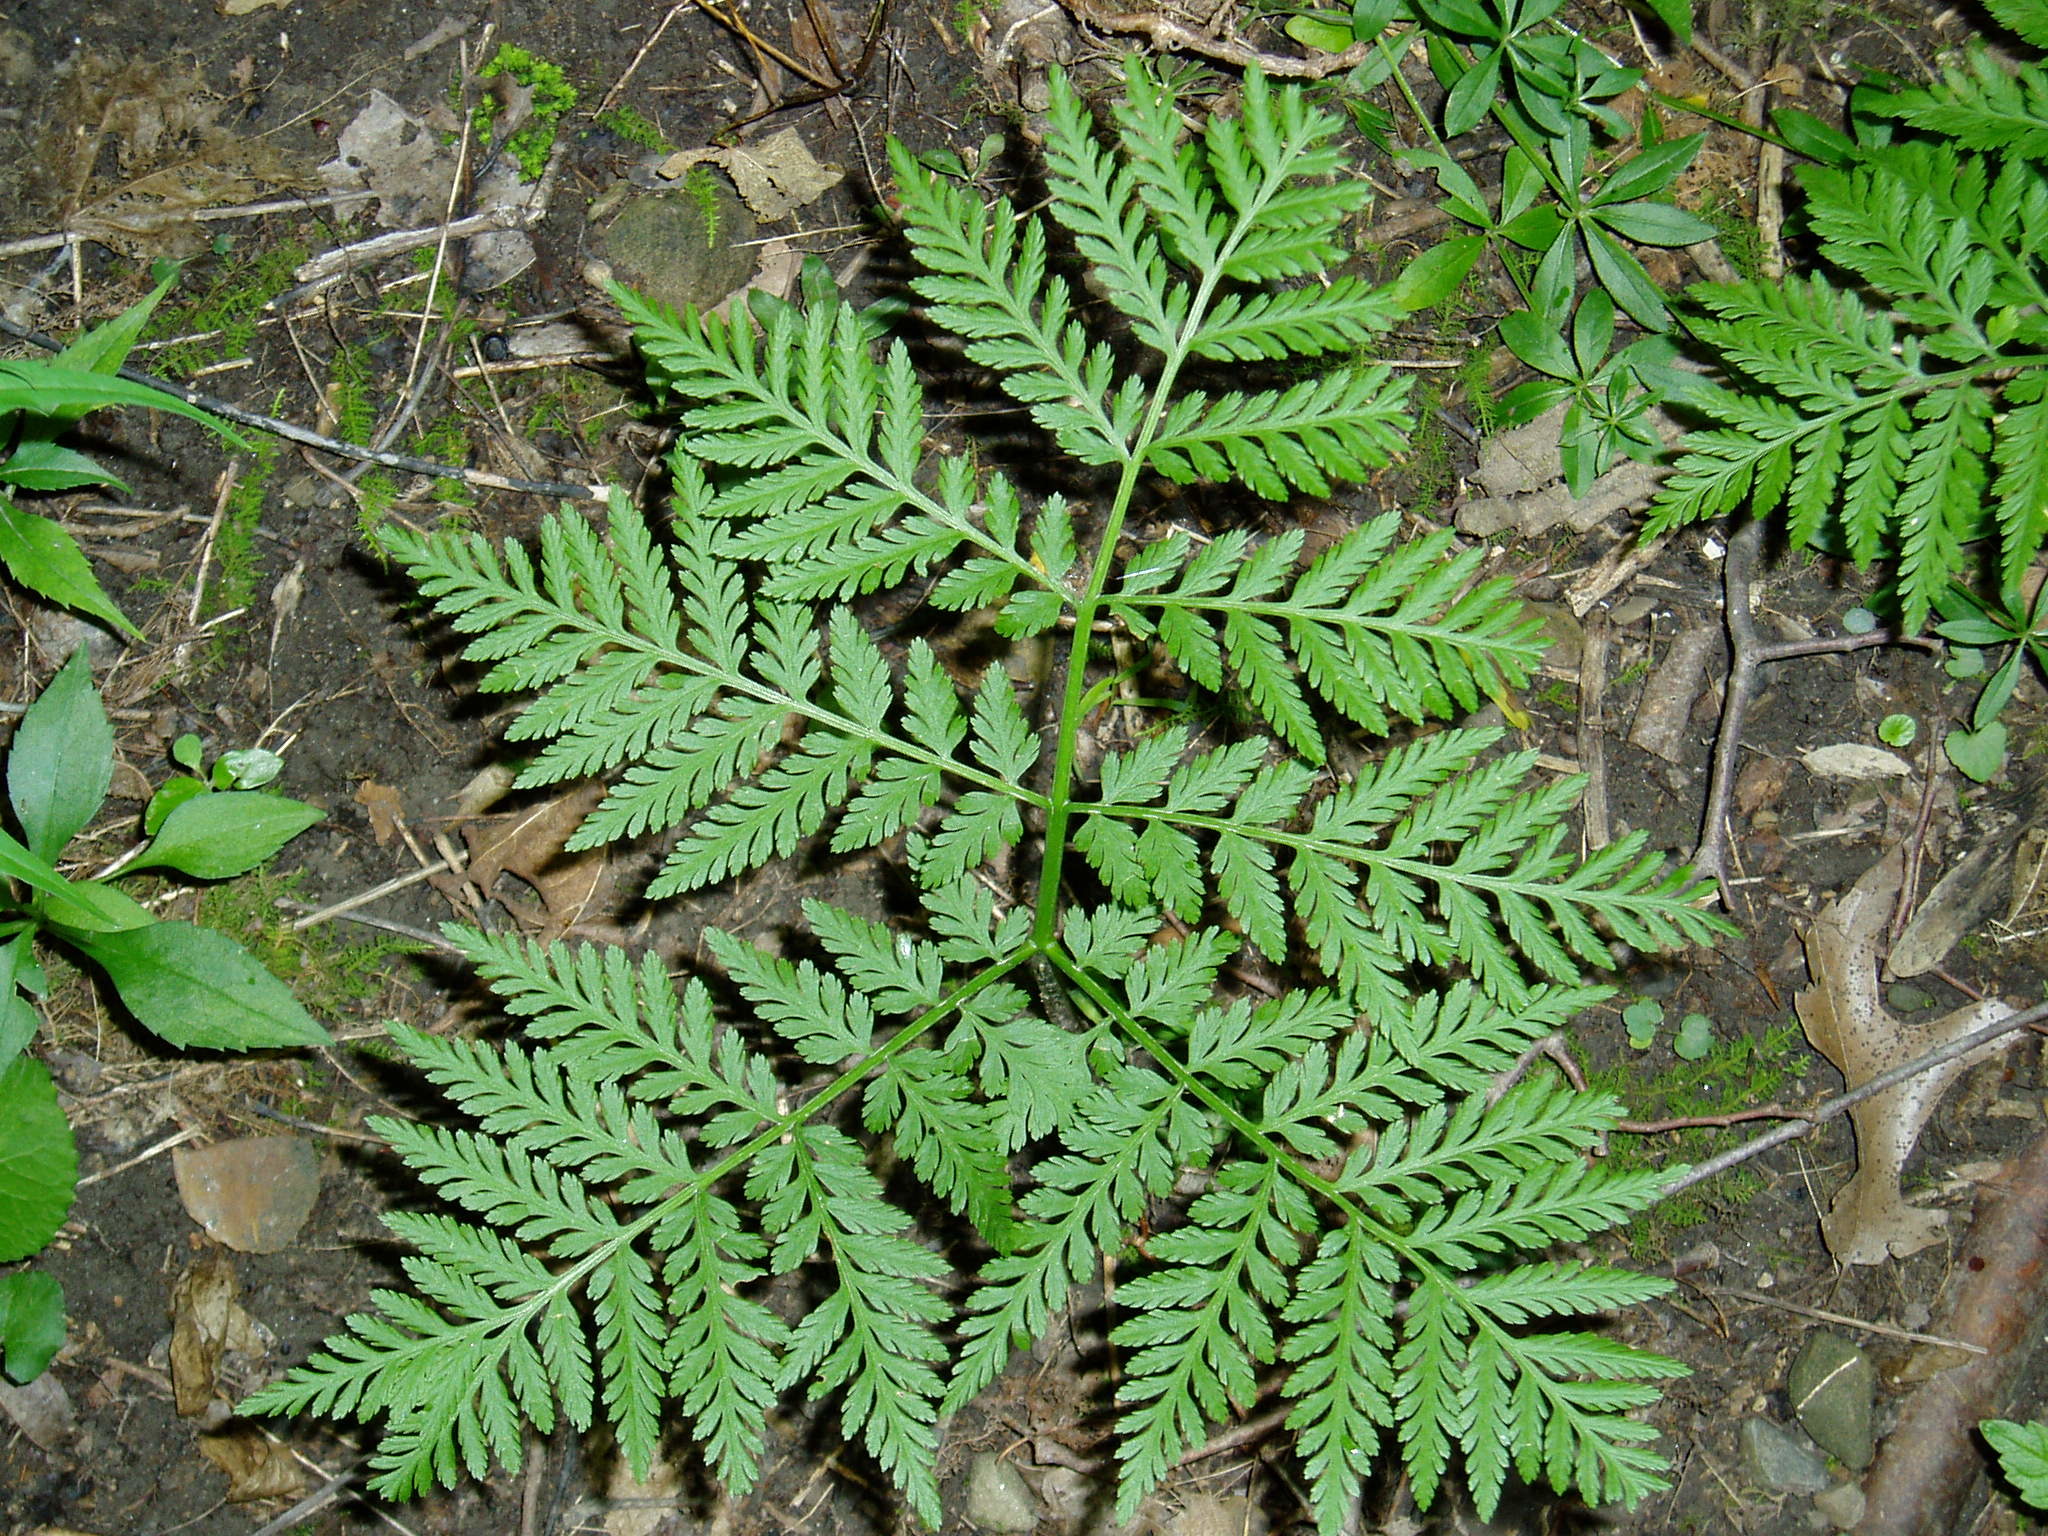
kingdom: Plantae
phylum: Tracheophyta
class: Polypodiopsida
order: Ophioglossales
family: Ophioglossaceae
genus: Botrypus
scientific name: Botrypus virginianus
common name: Common grapefern
